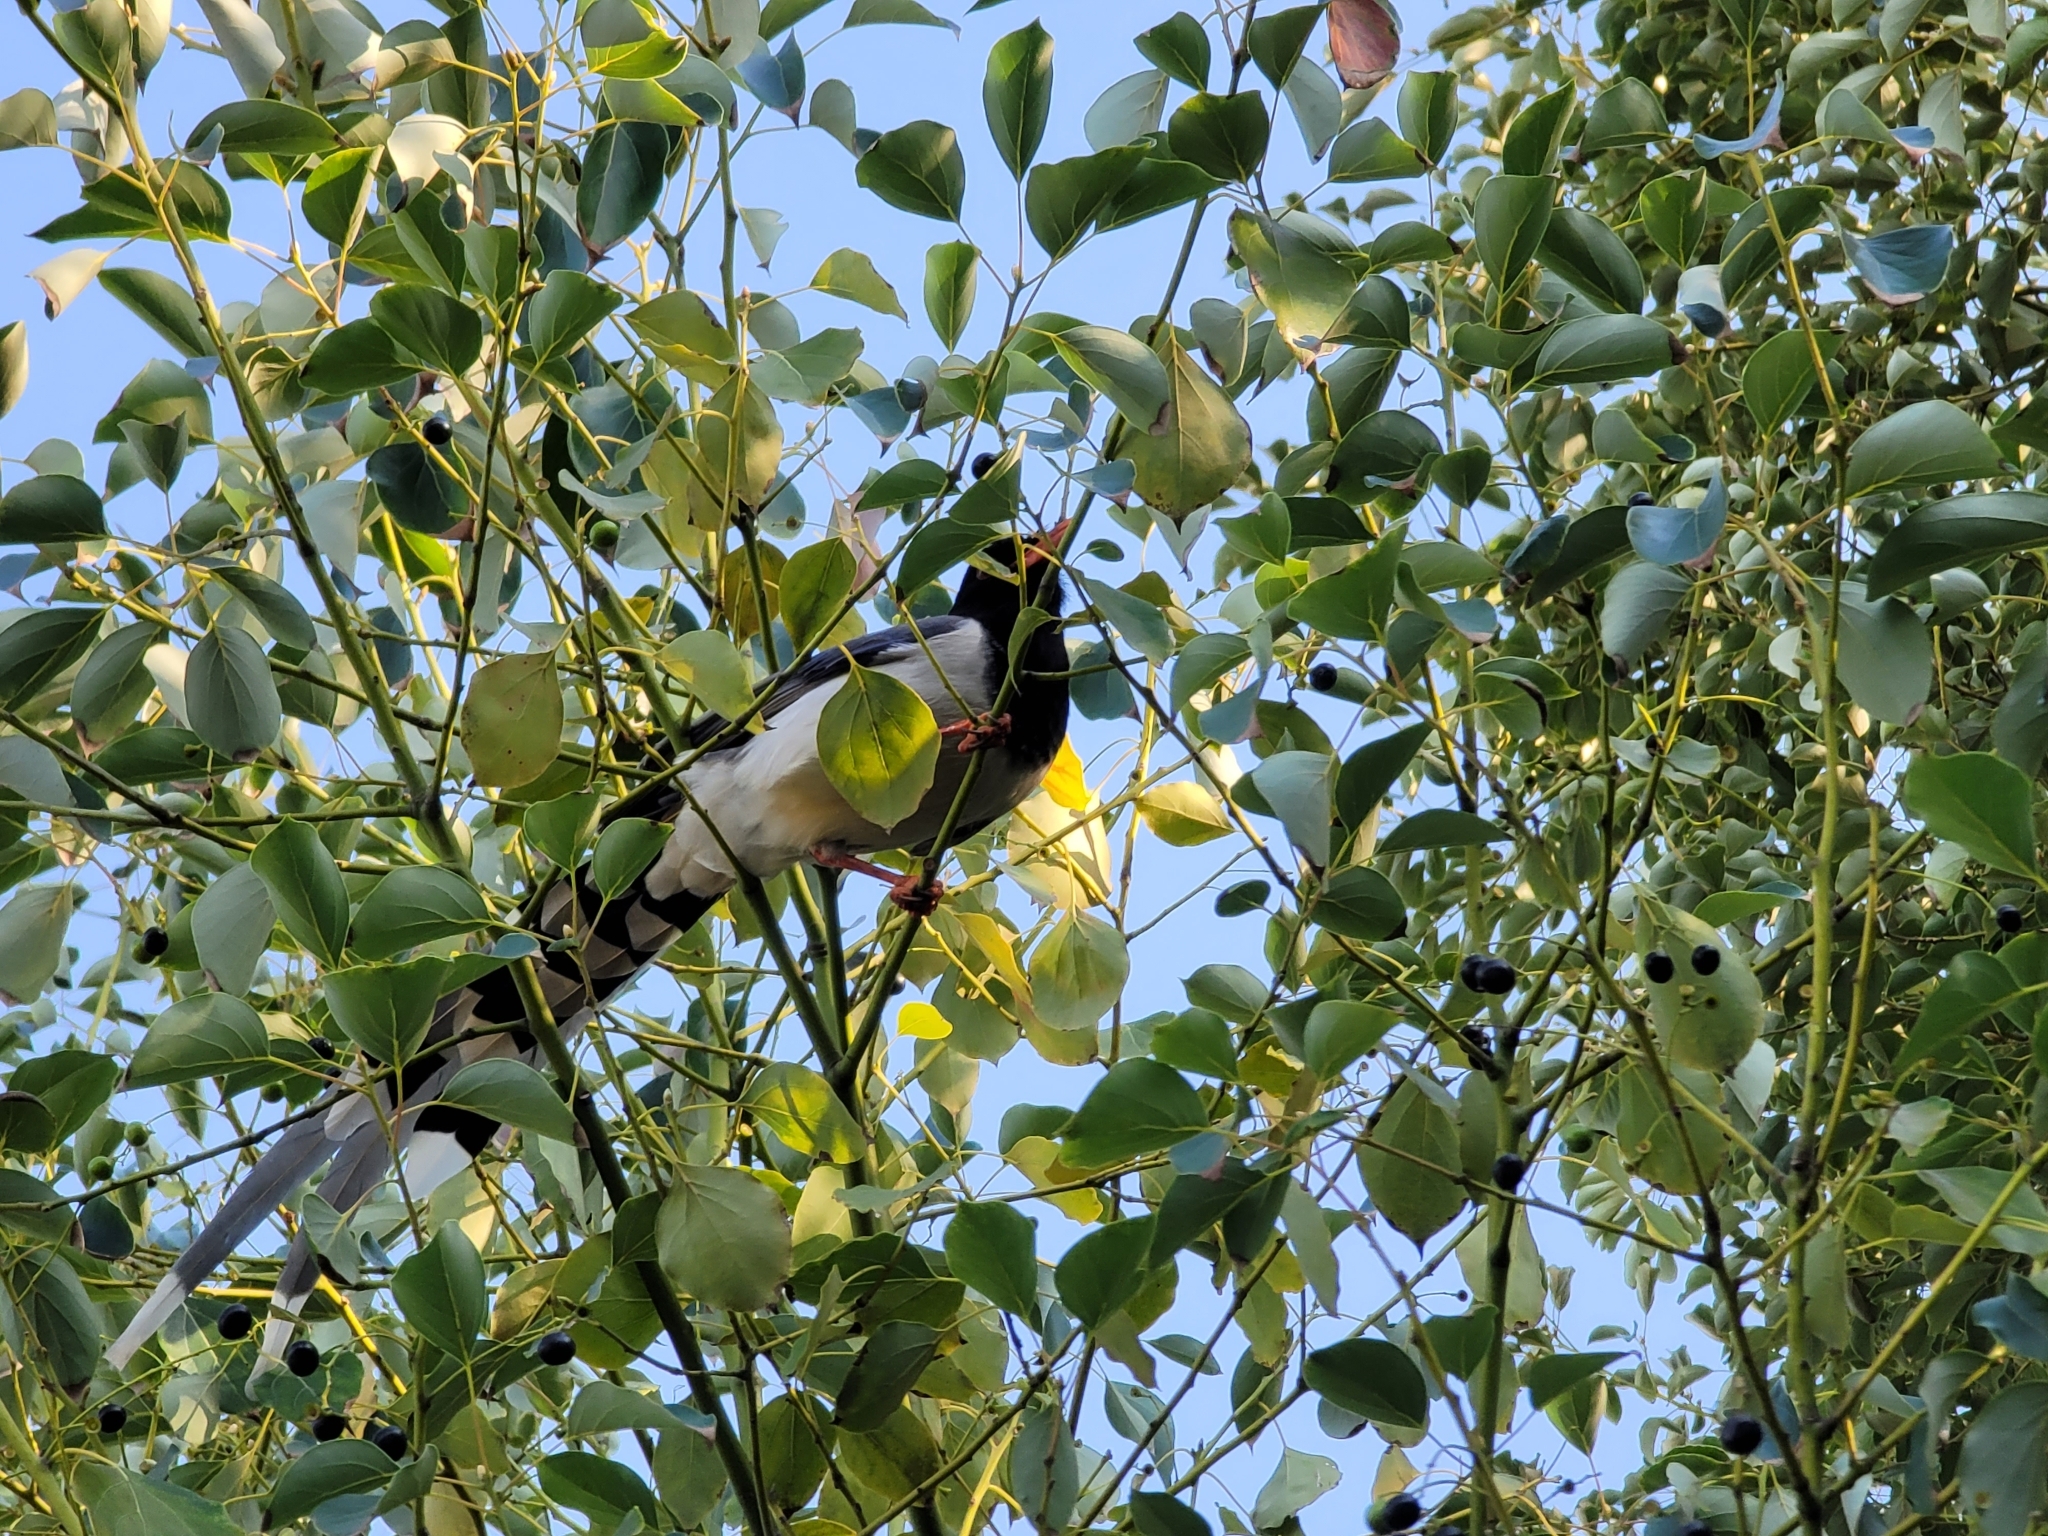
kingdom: Animalia
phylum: Chordata
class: Aves
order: Passeriformes
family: Corvidae
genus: Urocissa
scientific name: Urocissa erythroryncha
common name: Red-billed blue magpie
